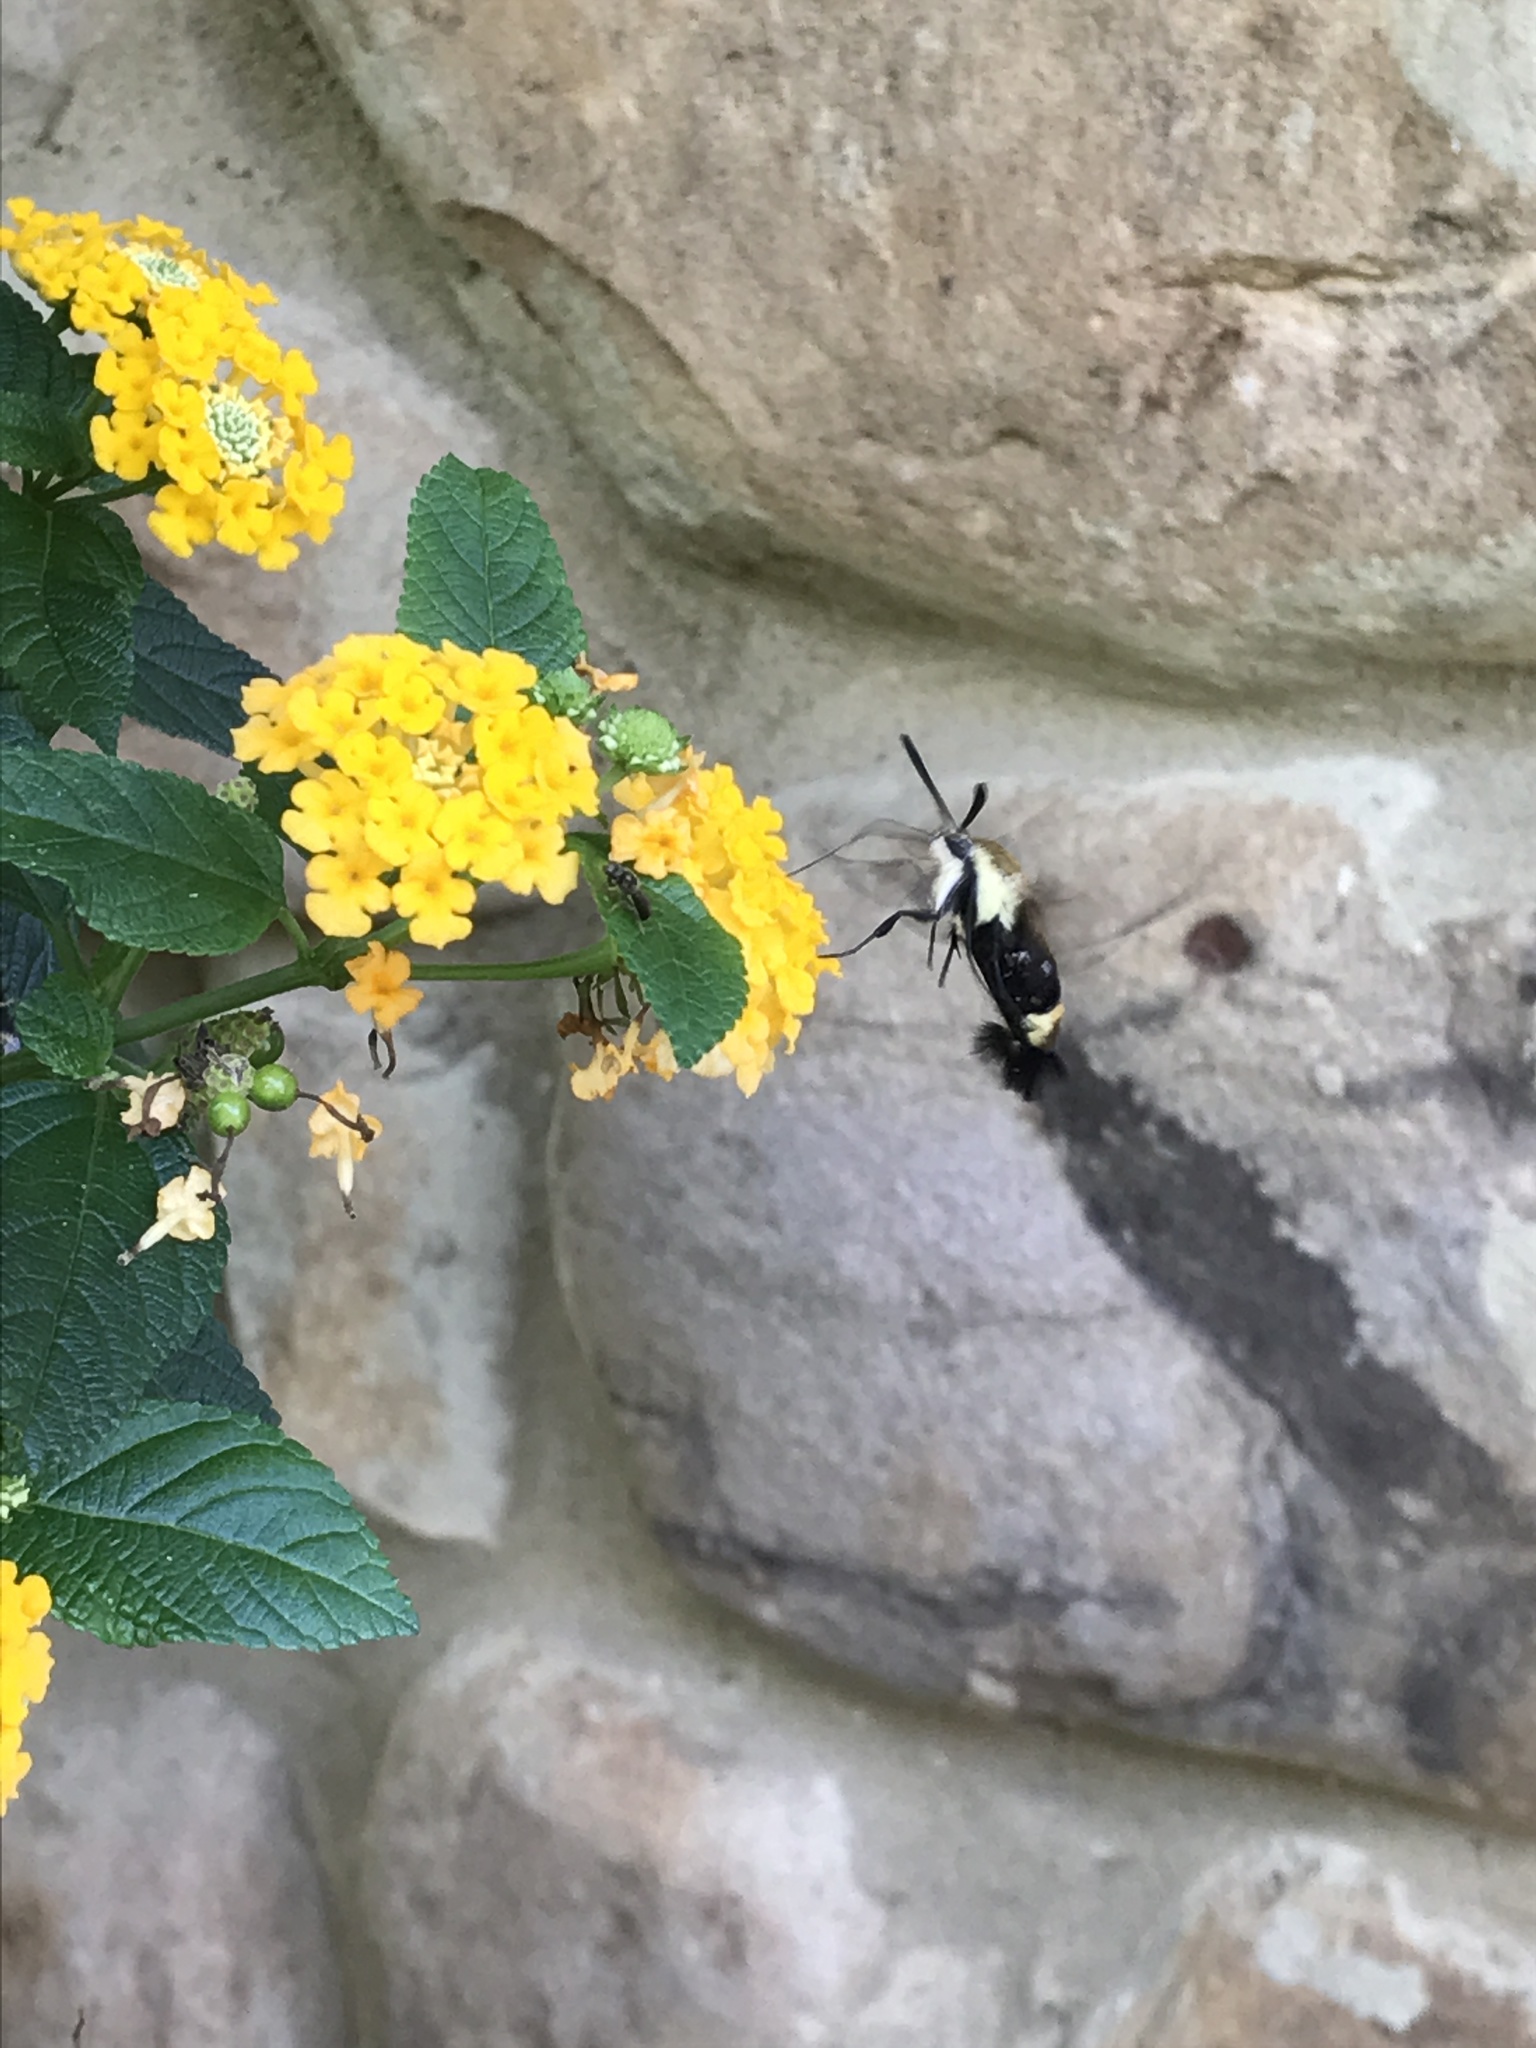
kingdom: Animalia
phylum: Arthropoda
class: Insecta
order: Lepidoptera
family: Sphingidae
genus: Hemaris
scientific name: Hemaris diffinis
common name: Bumblebee moth
